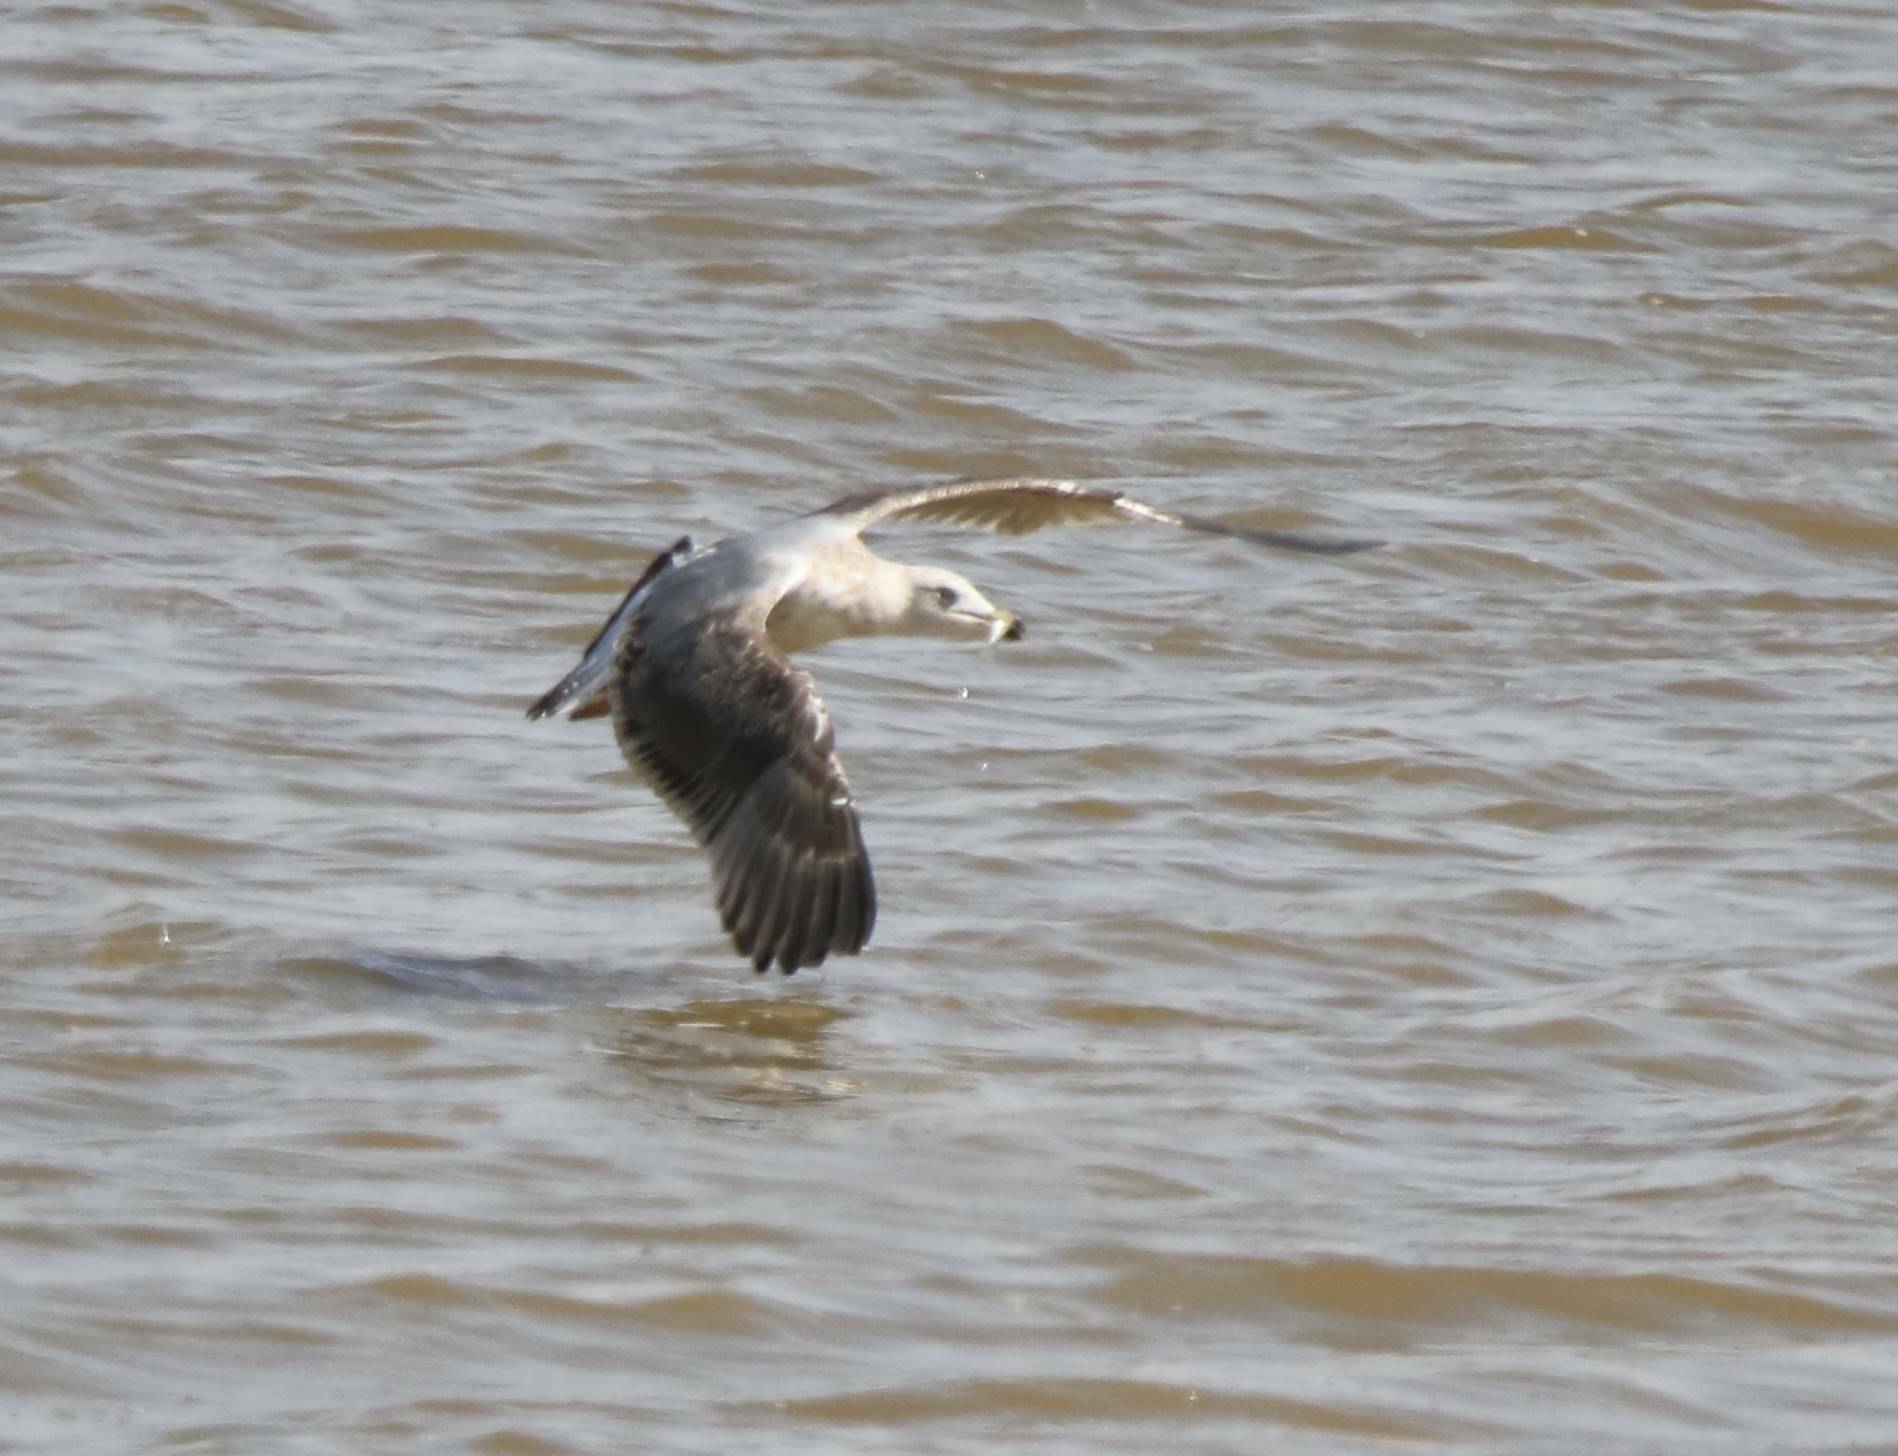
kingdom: Animalia
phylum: Chordata
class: Aves
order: Charadriiformes
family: Laridae
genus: Larus
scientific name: Larus michahellis
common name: Yellow-legged gull
